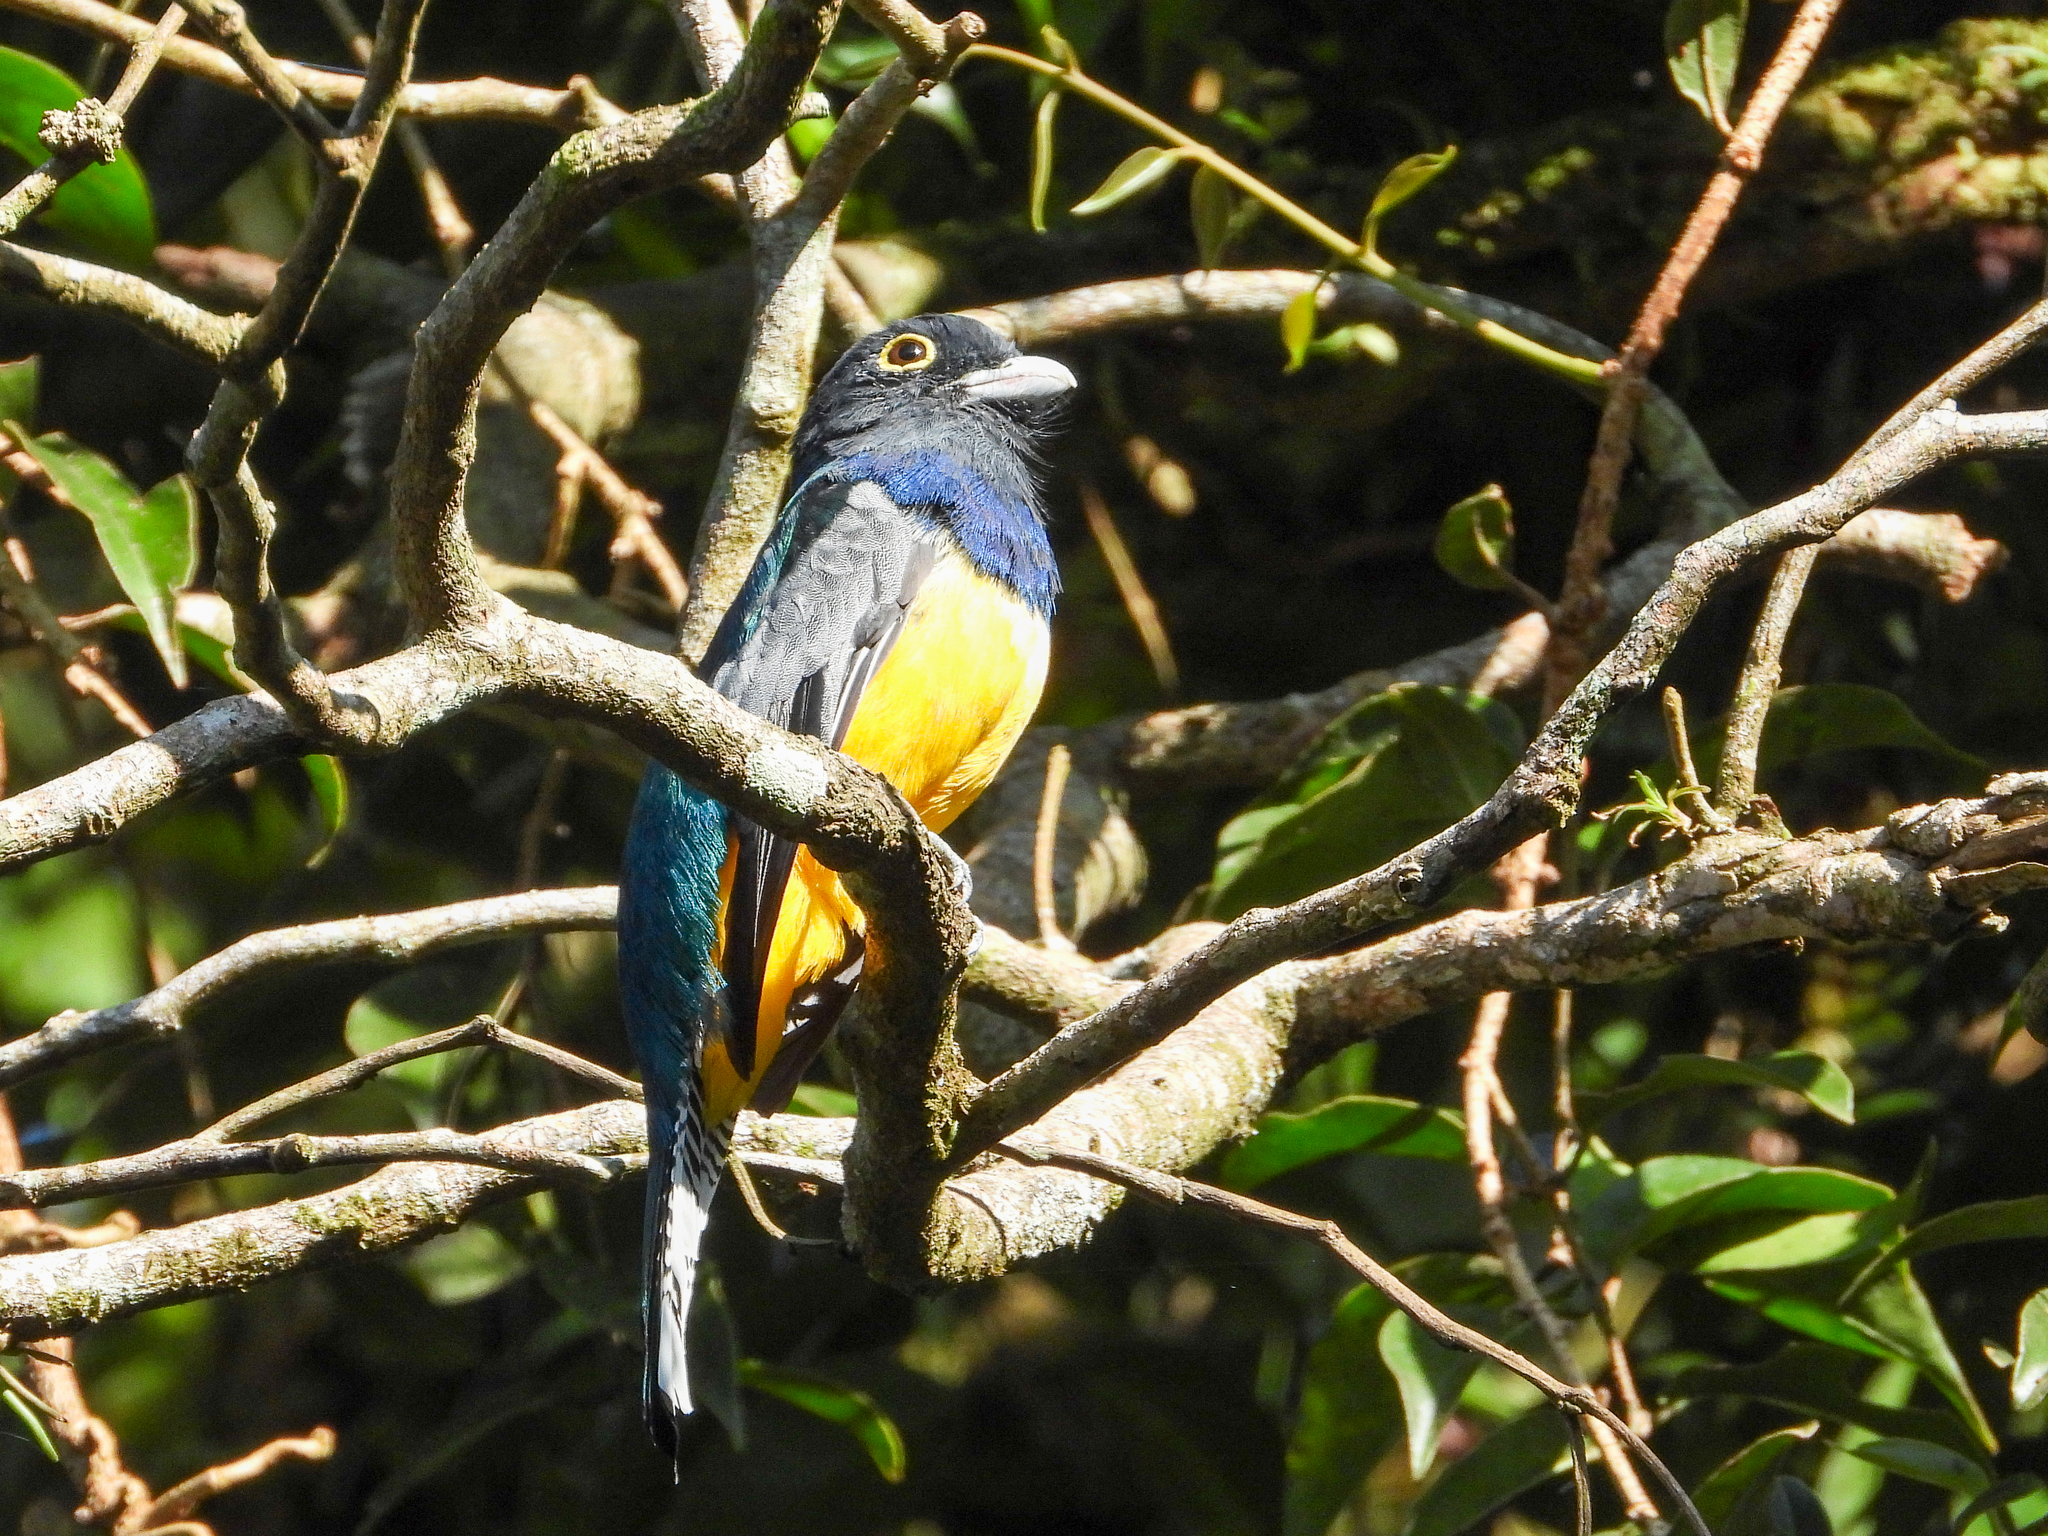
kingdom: Animalia
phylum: Chordata
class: Aves
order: Trogoniformes
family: Trogonidae
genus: Trogon
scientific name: Trogon caligatus
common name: Gartered trogon
